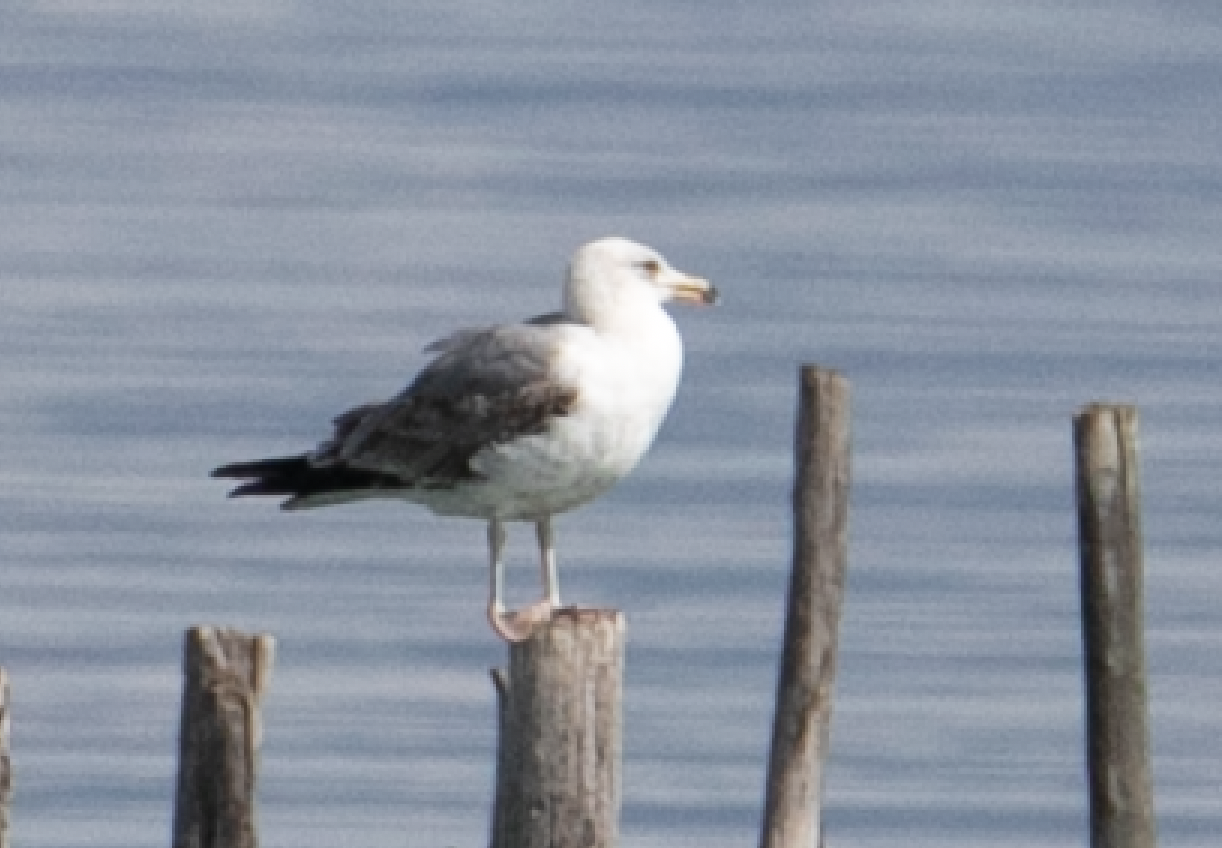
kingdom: Animalia
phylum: Chordata
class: Aves
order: Charadriiformes
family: Laridae
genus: Larus
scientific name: Larus michahellis
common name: Yellow-legged gull
